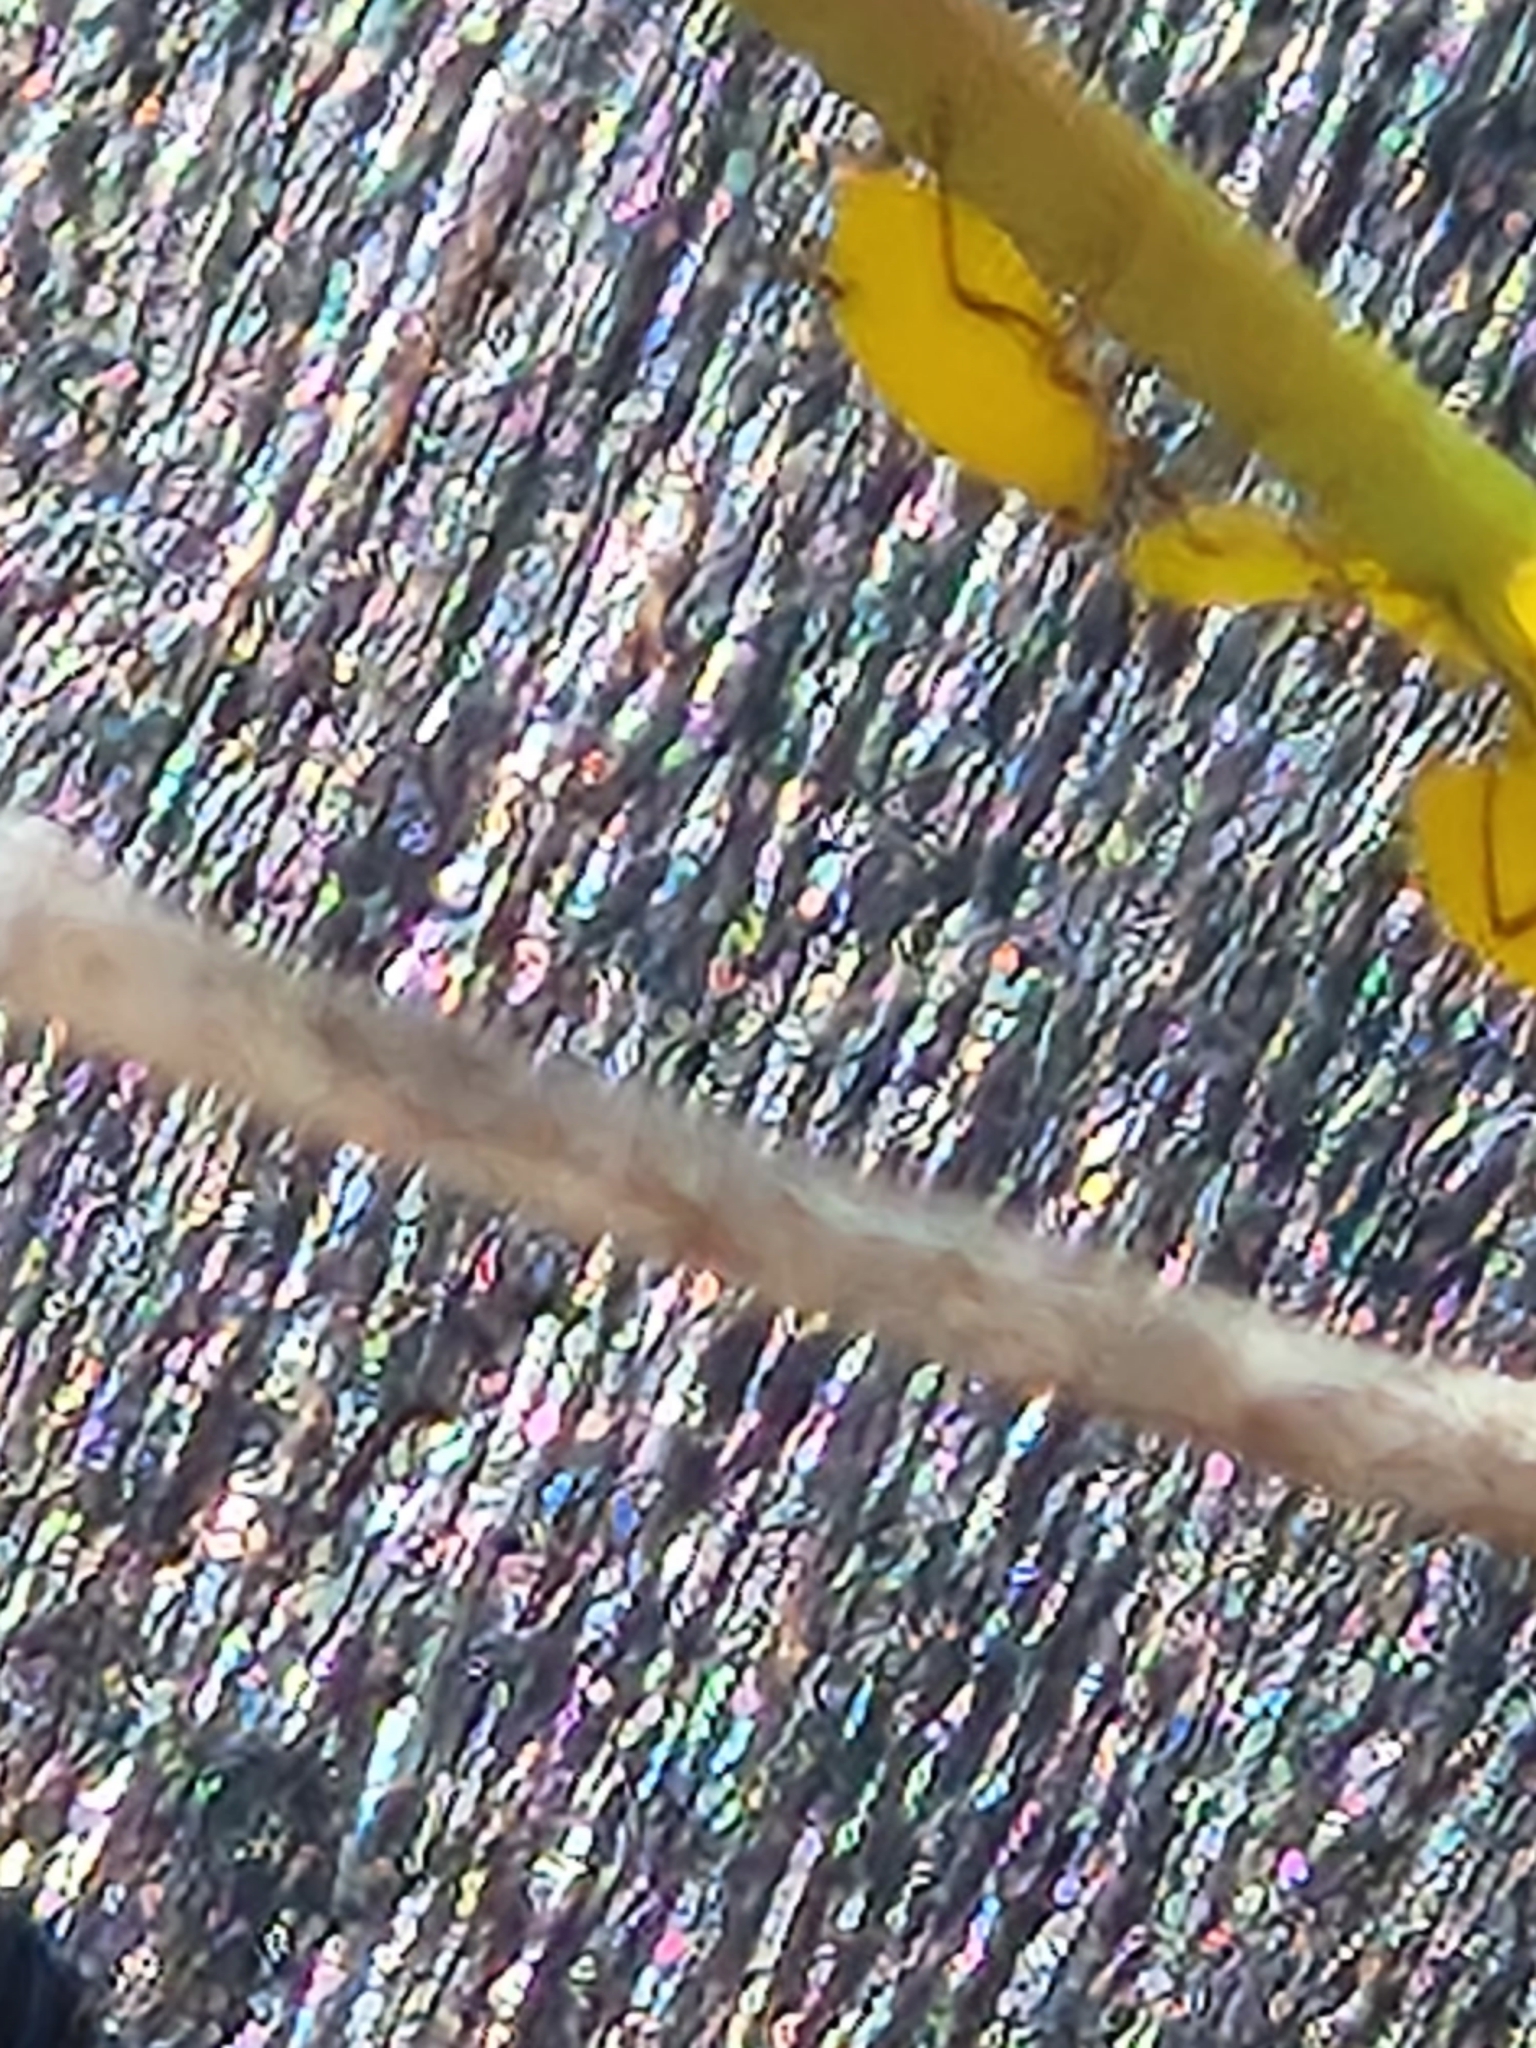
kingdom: Animalia
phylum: Arthropoda
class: Insecta
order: Hemiptera
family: Aphididae
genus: Aphis
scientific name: Aphis nerii
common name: Oleander aphid
